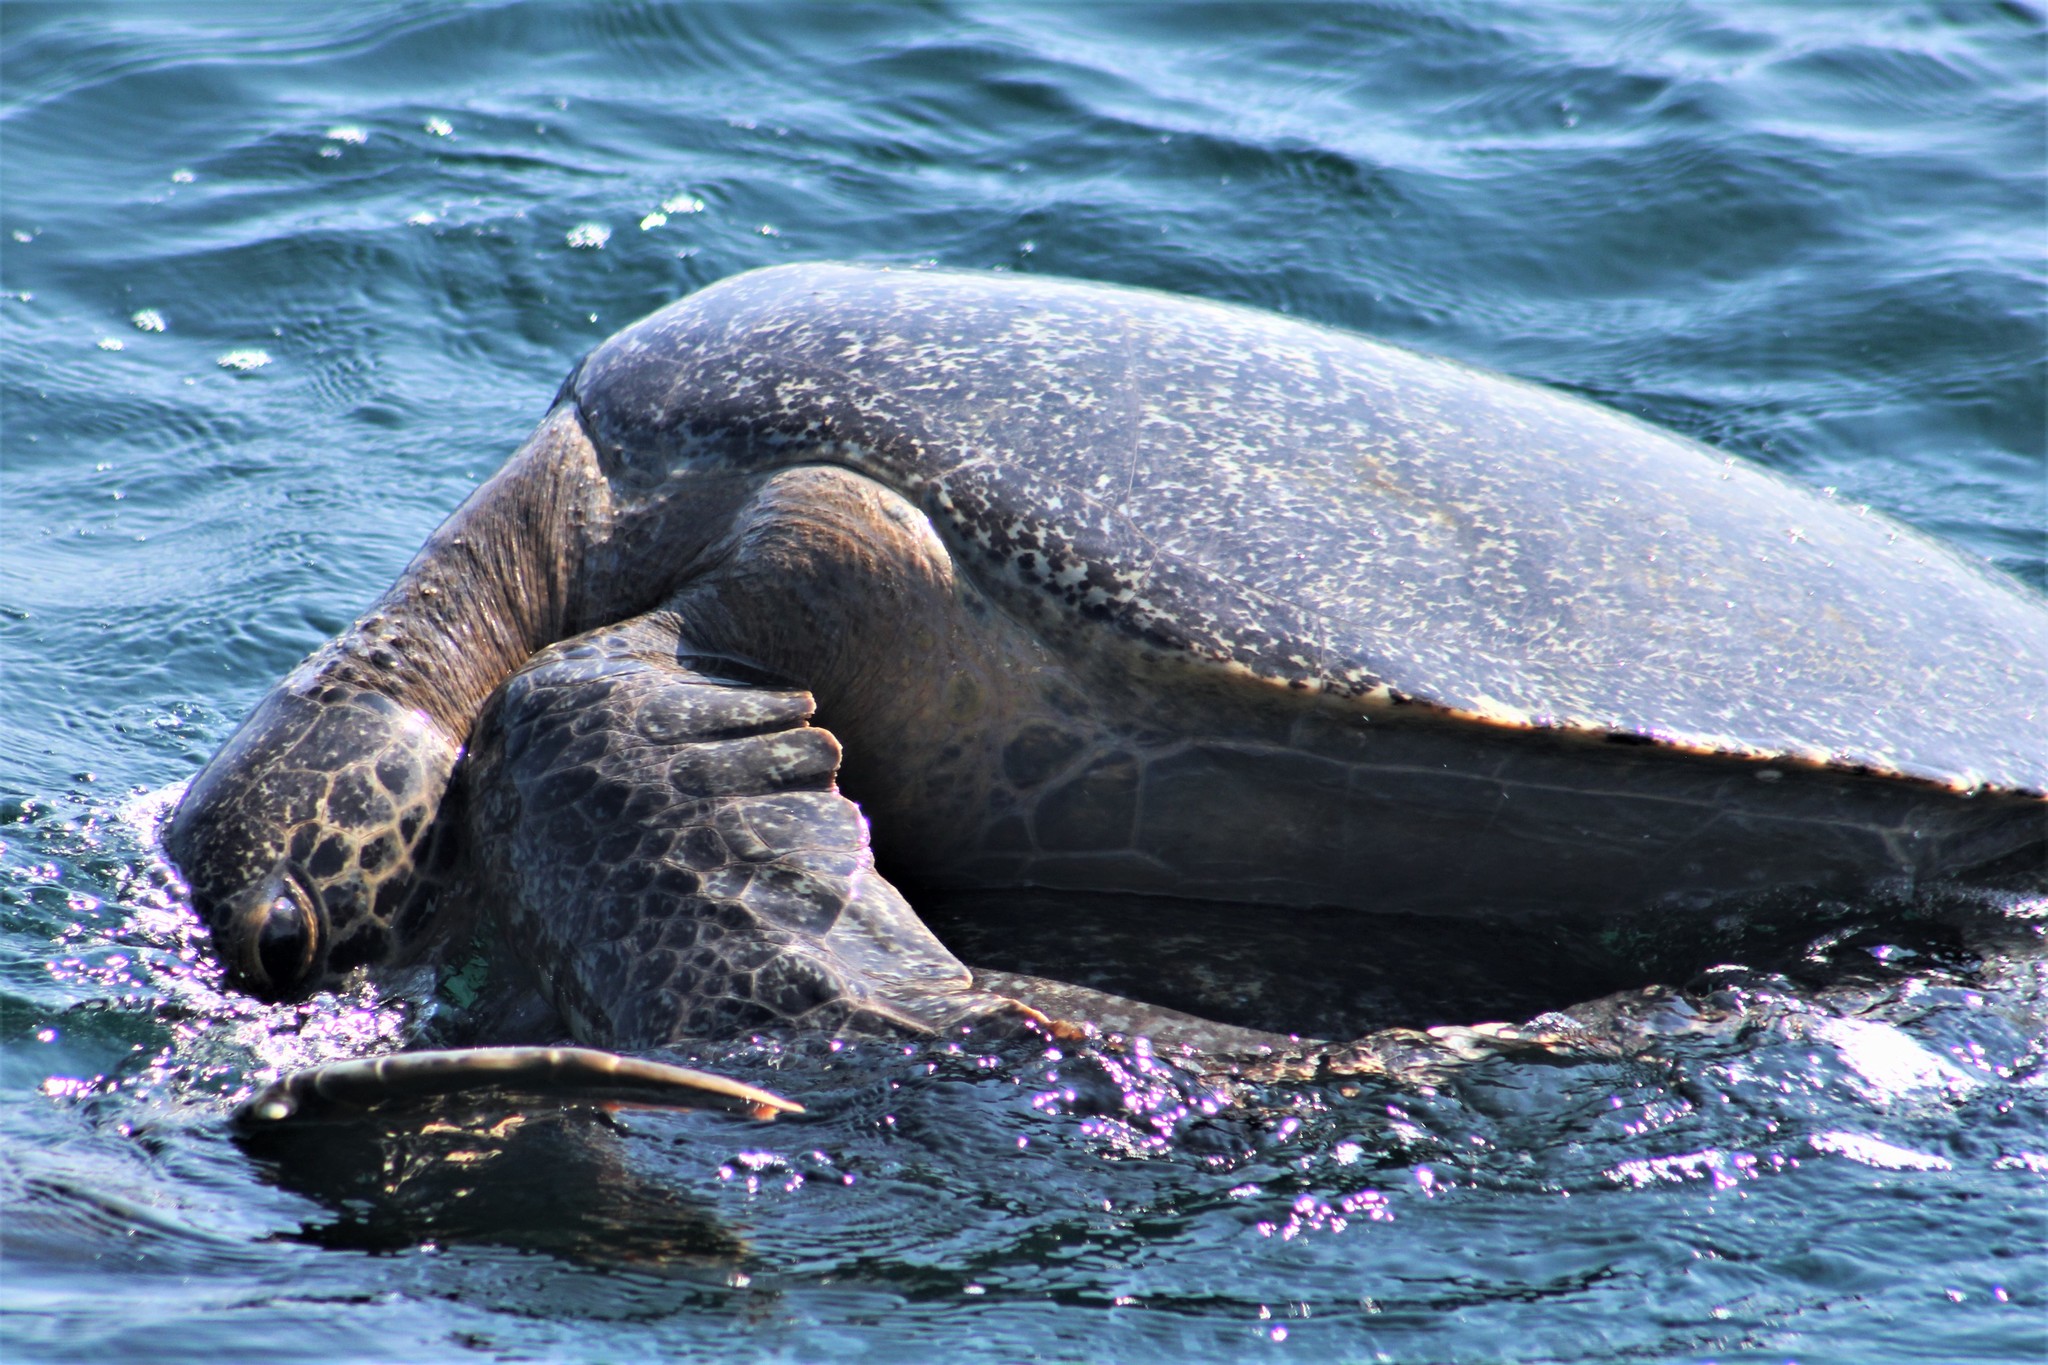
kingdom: Animalia
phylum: Chordata
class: Testudines
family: Cheloniidae
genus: Chelonia
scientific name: Chelonia mydas
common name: Green turtle
